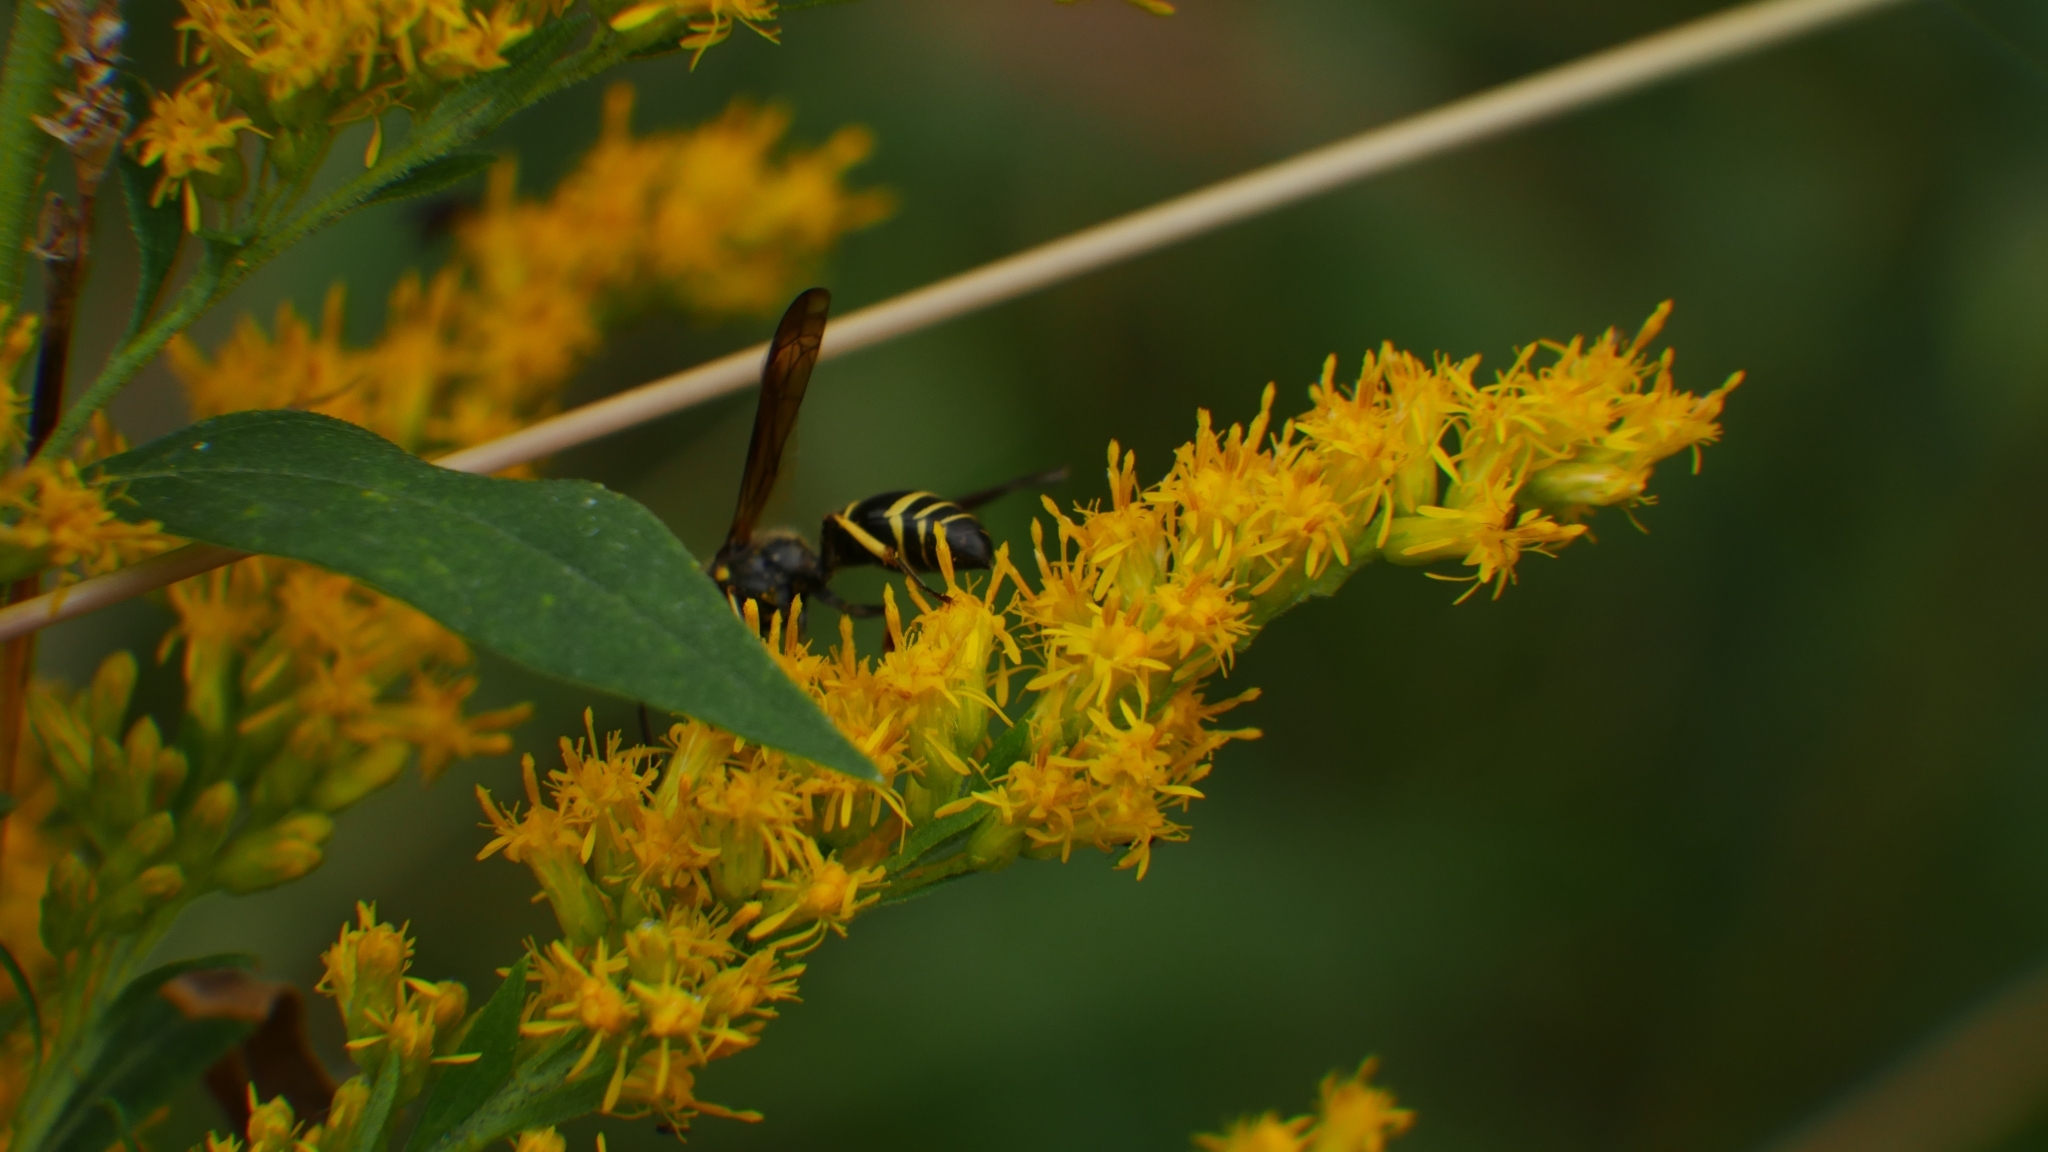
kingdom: Animalia
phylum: Arthropoda
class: Insecta
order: Hymenoptera
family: Vespidae
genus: Ancistrocerus
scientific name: Ancistrocerus
